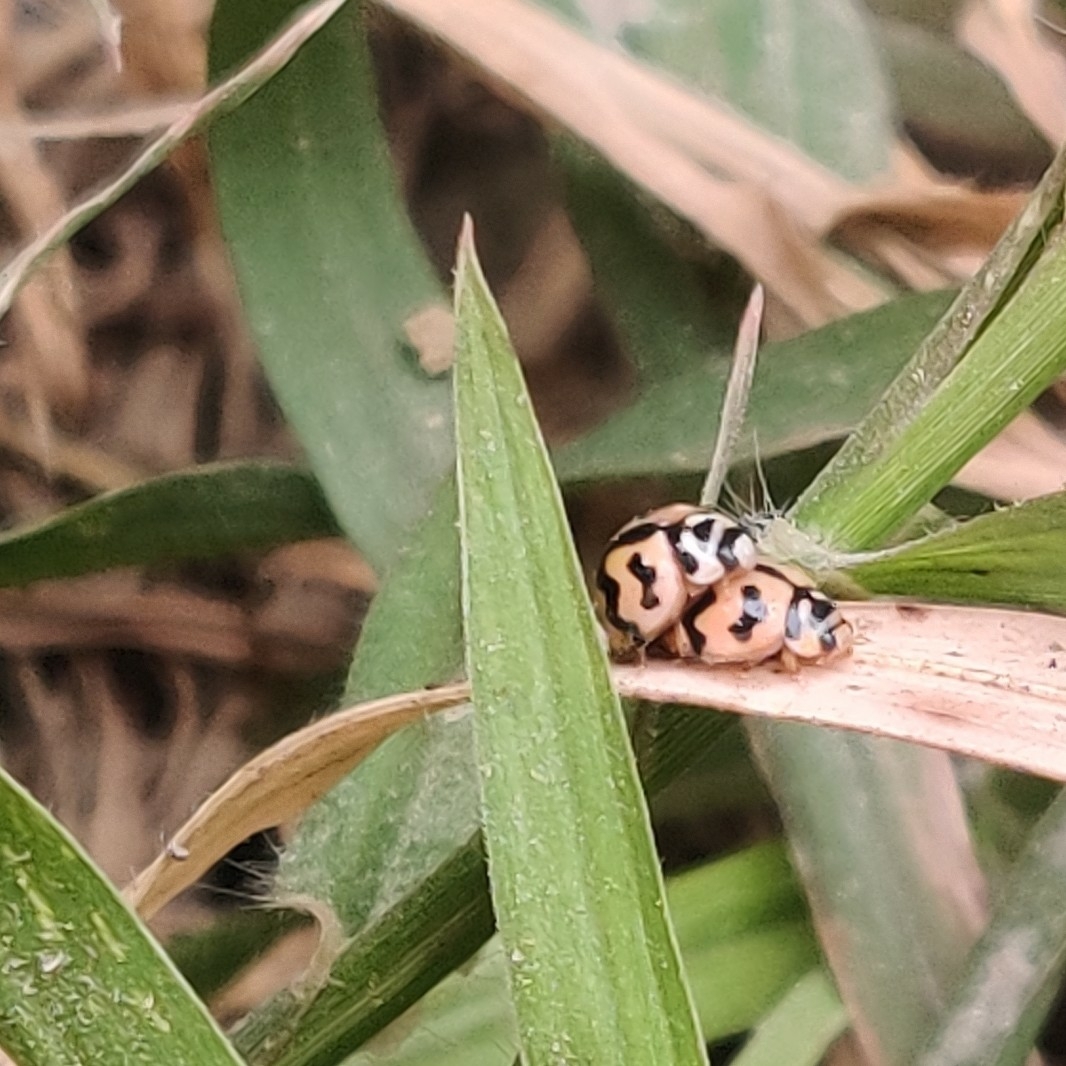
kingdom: Animalia
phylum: Arthropoda
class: Insecta
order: Coleoptera
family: Coccinellidae
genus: Cheilomenes
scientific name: Cheilomenes sexmaculata
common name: Ladybird beetle
